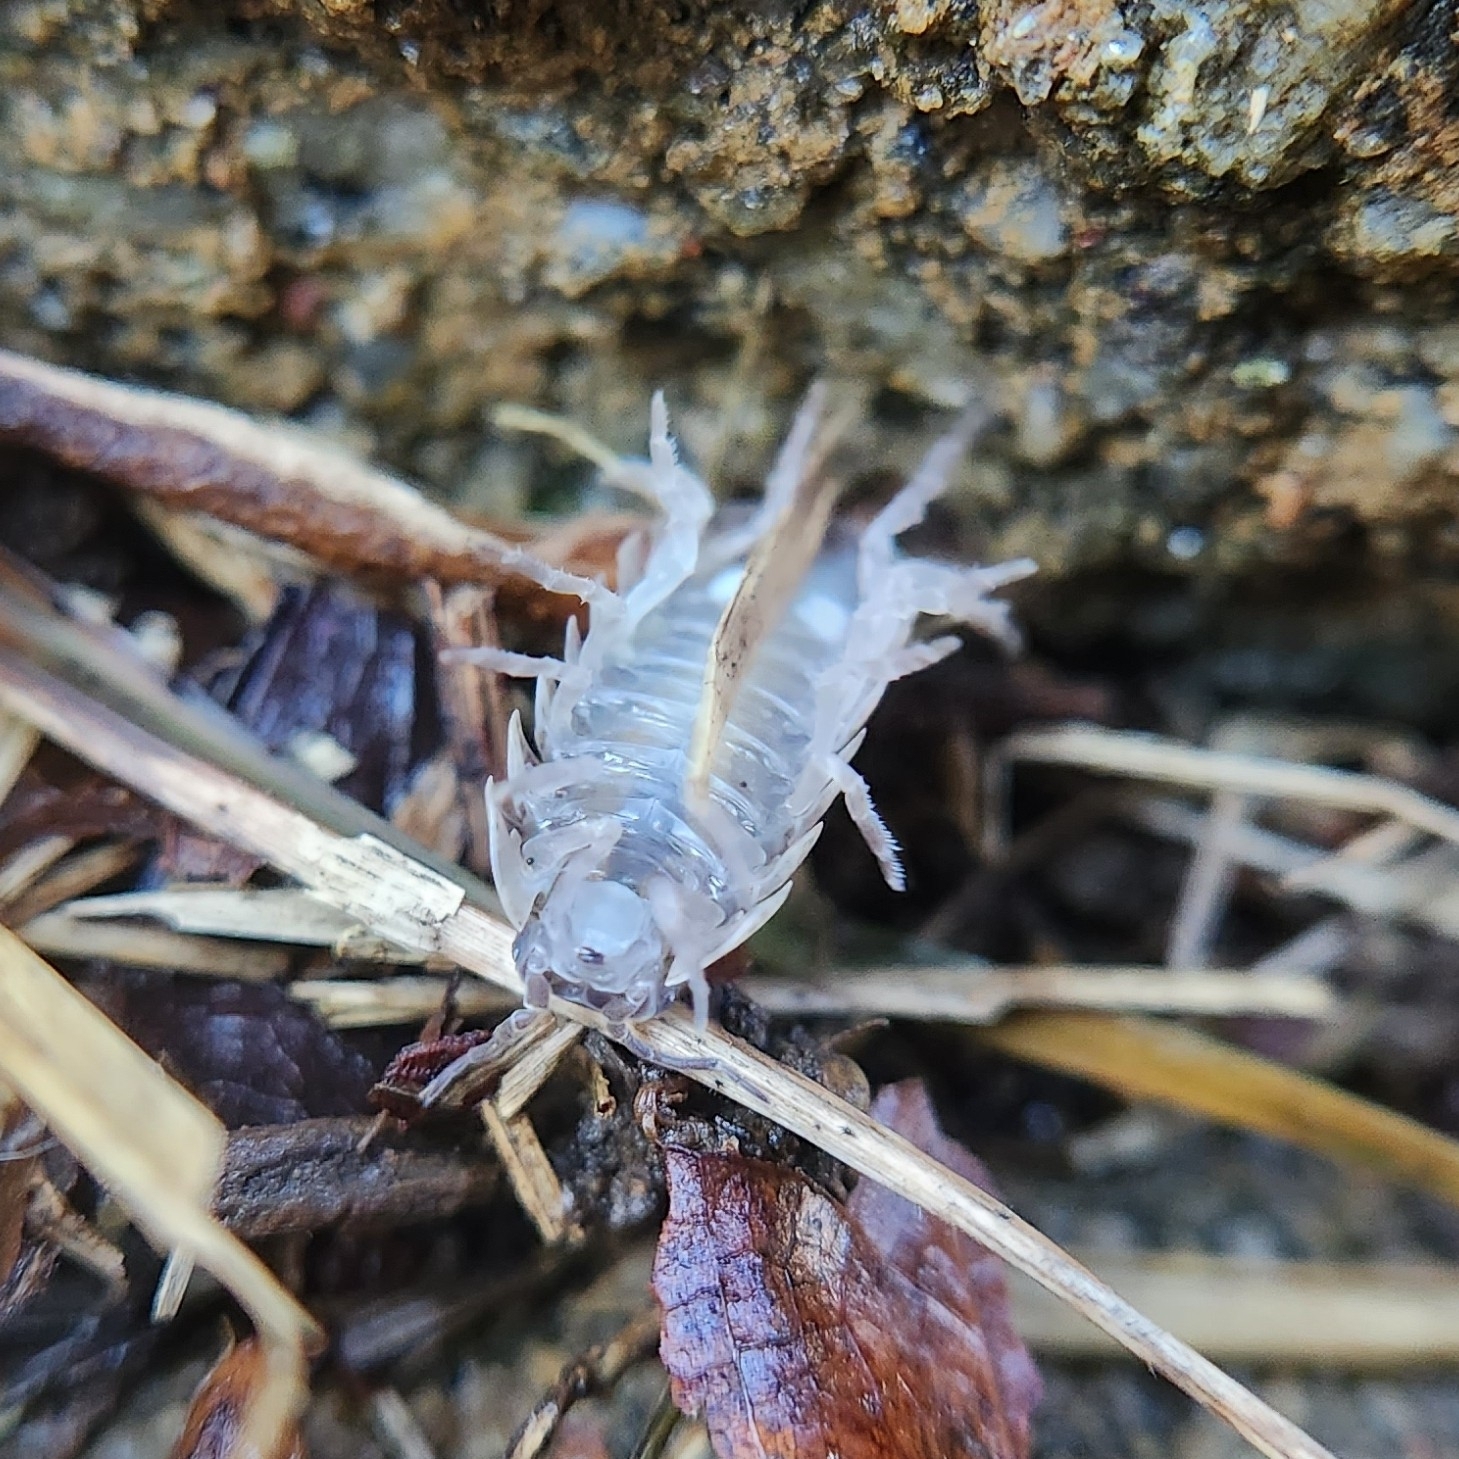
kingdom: Animalia
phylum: Arthropoda
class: Malacostraca
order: Isopoda
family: Armadillidiidae
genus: Armadillidium
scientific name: Armadillidium vulgare
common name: Common pill woodlouse
